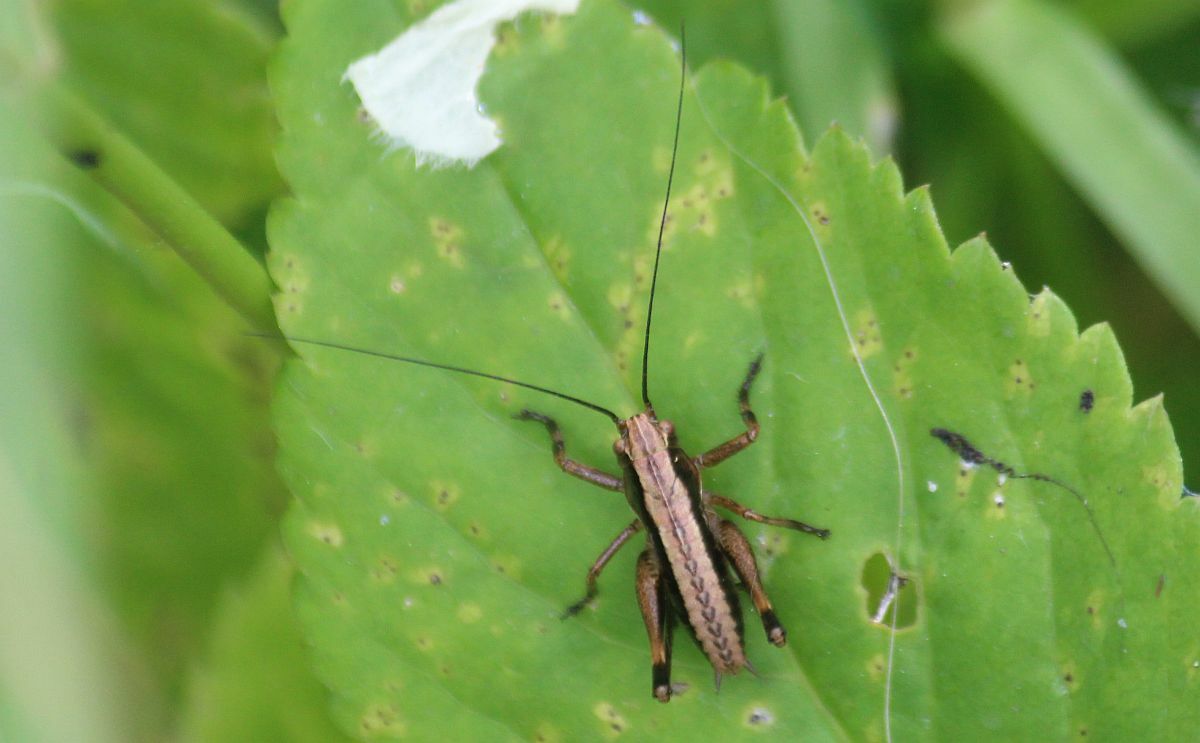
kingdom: Animalia
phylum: Arthropoda
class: Insecta
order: Orthoptera
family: Tettigoniidae
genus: Pholidoptera
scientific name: Pholidoptera griseoaptera
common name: Dark bush-cricket
